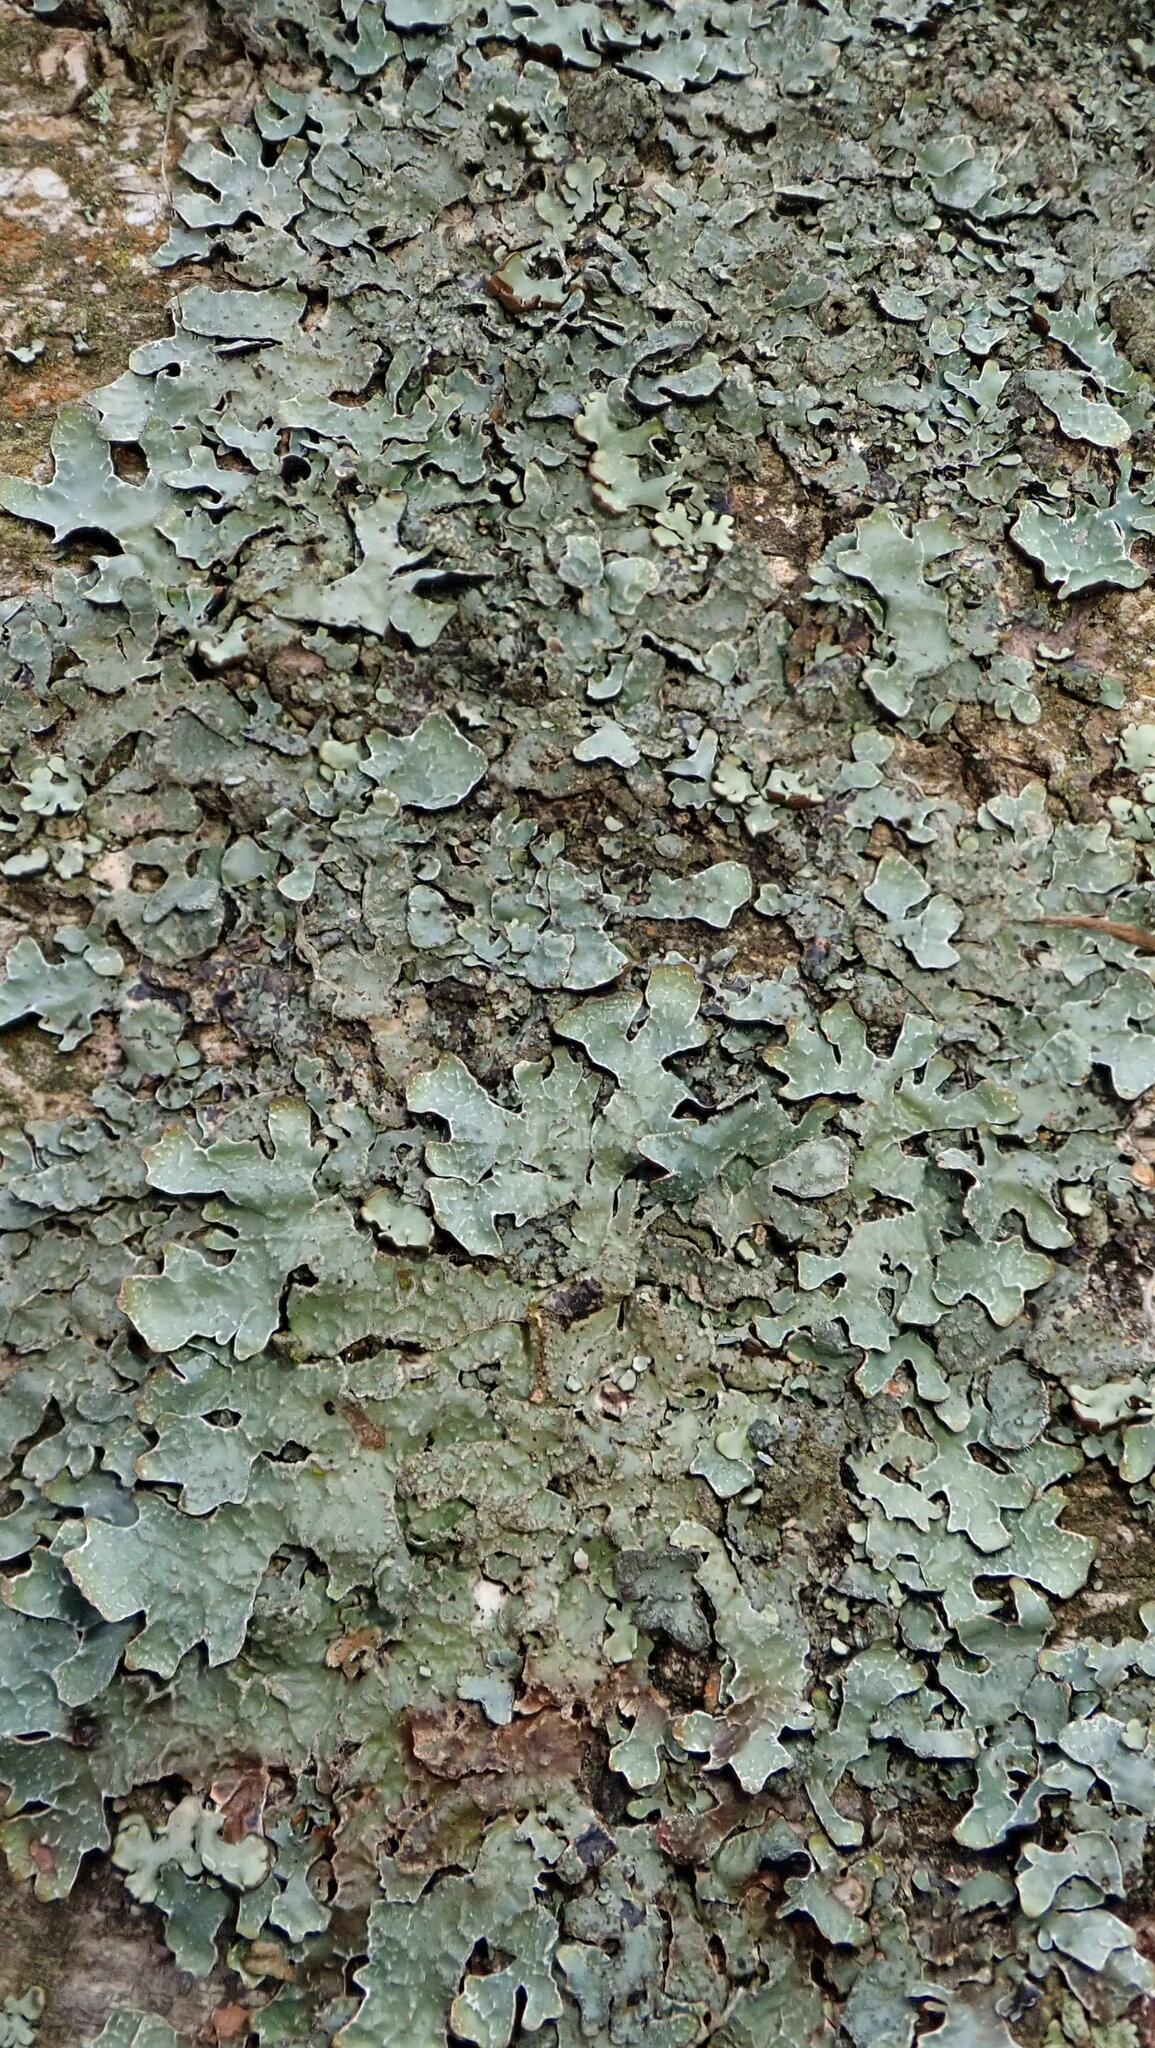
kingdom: Fungi
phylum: Ascomycota
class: Lecanoromycetes
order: Lecanorales
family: Parmeliaceae
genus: Parmelia
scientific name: Parmelia sulcata
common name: Netted shield lichen
